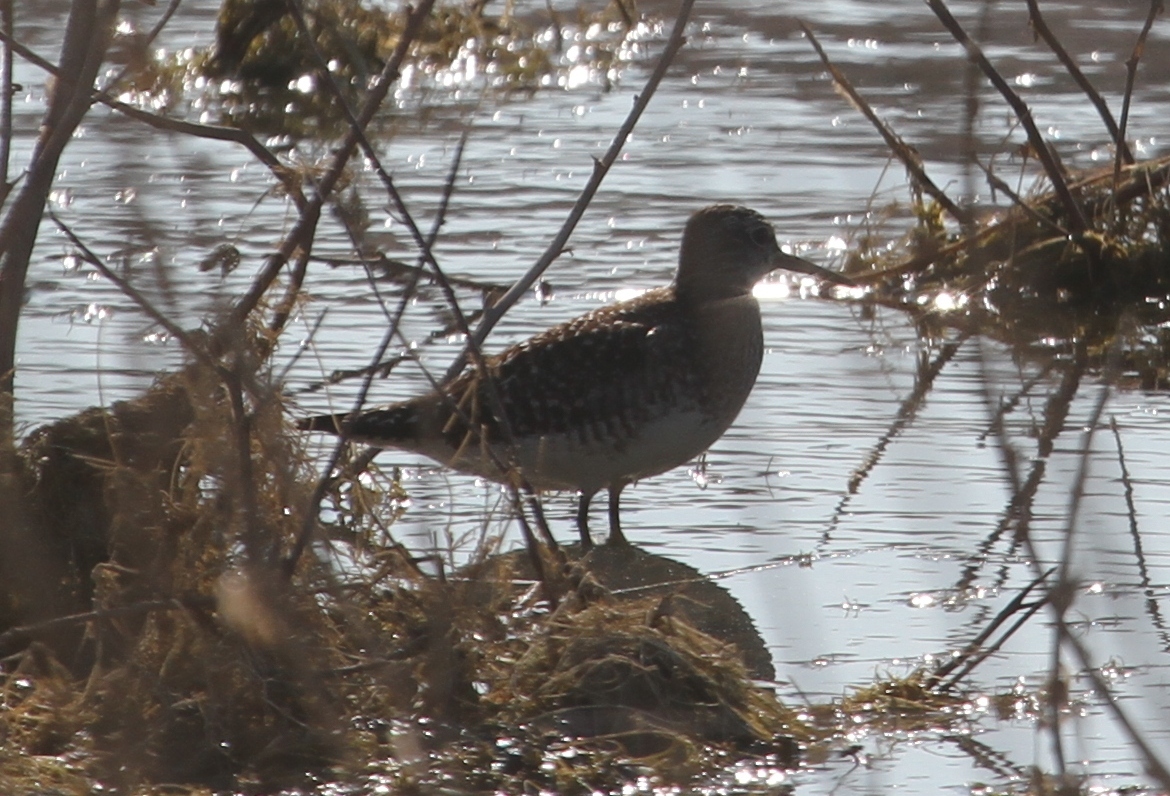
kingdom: Animalia
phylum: Chordata
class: Aves
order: Charadriiformes
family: Scolopacidae
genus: Tringa
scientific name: Tringa glareola
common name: Wood sandpiper
